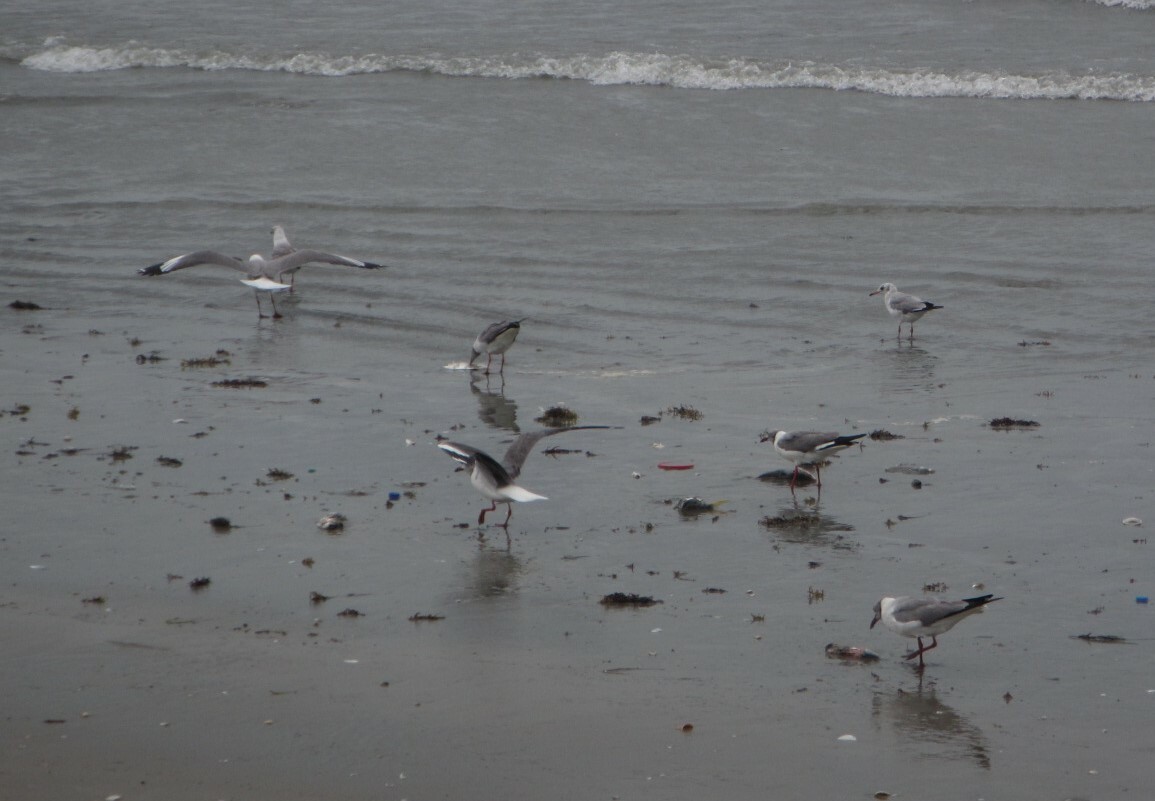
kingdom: Animalia
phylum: Chordata
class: Aves
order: Charadriiformes
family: Laridae
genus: Chroicocephalus
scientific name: Chroicocephalus cirrocephalus
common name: Grey-headed gull
